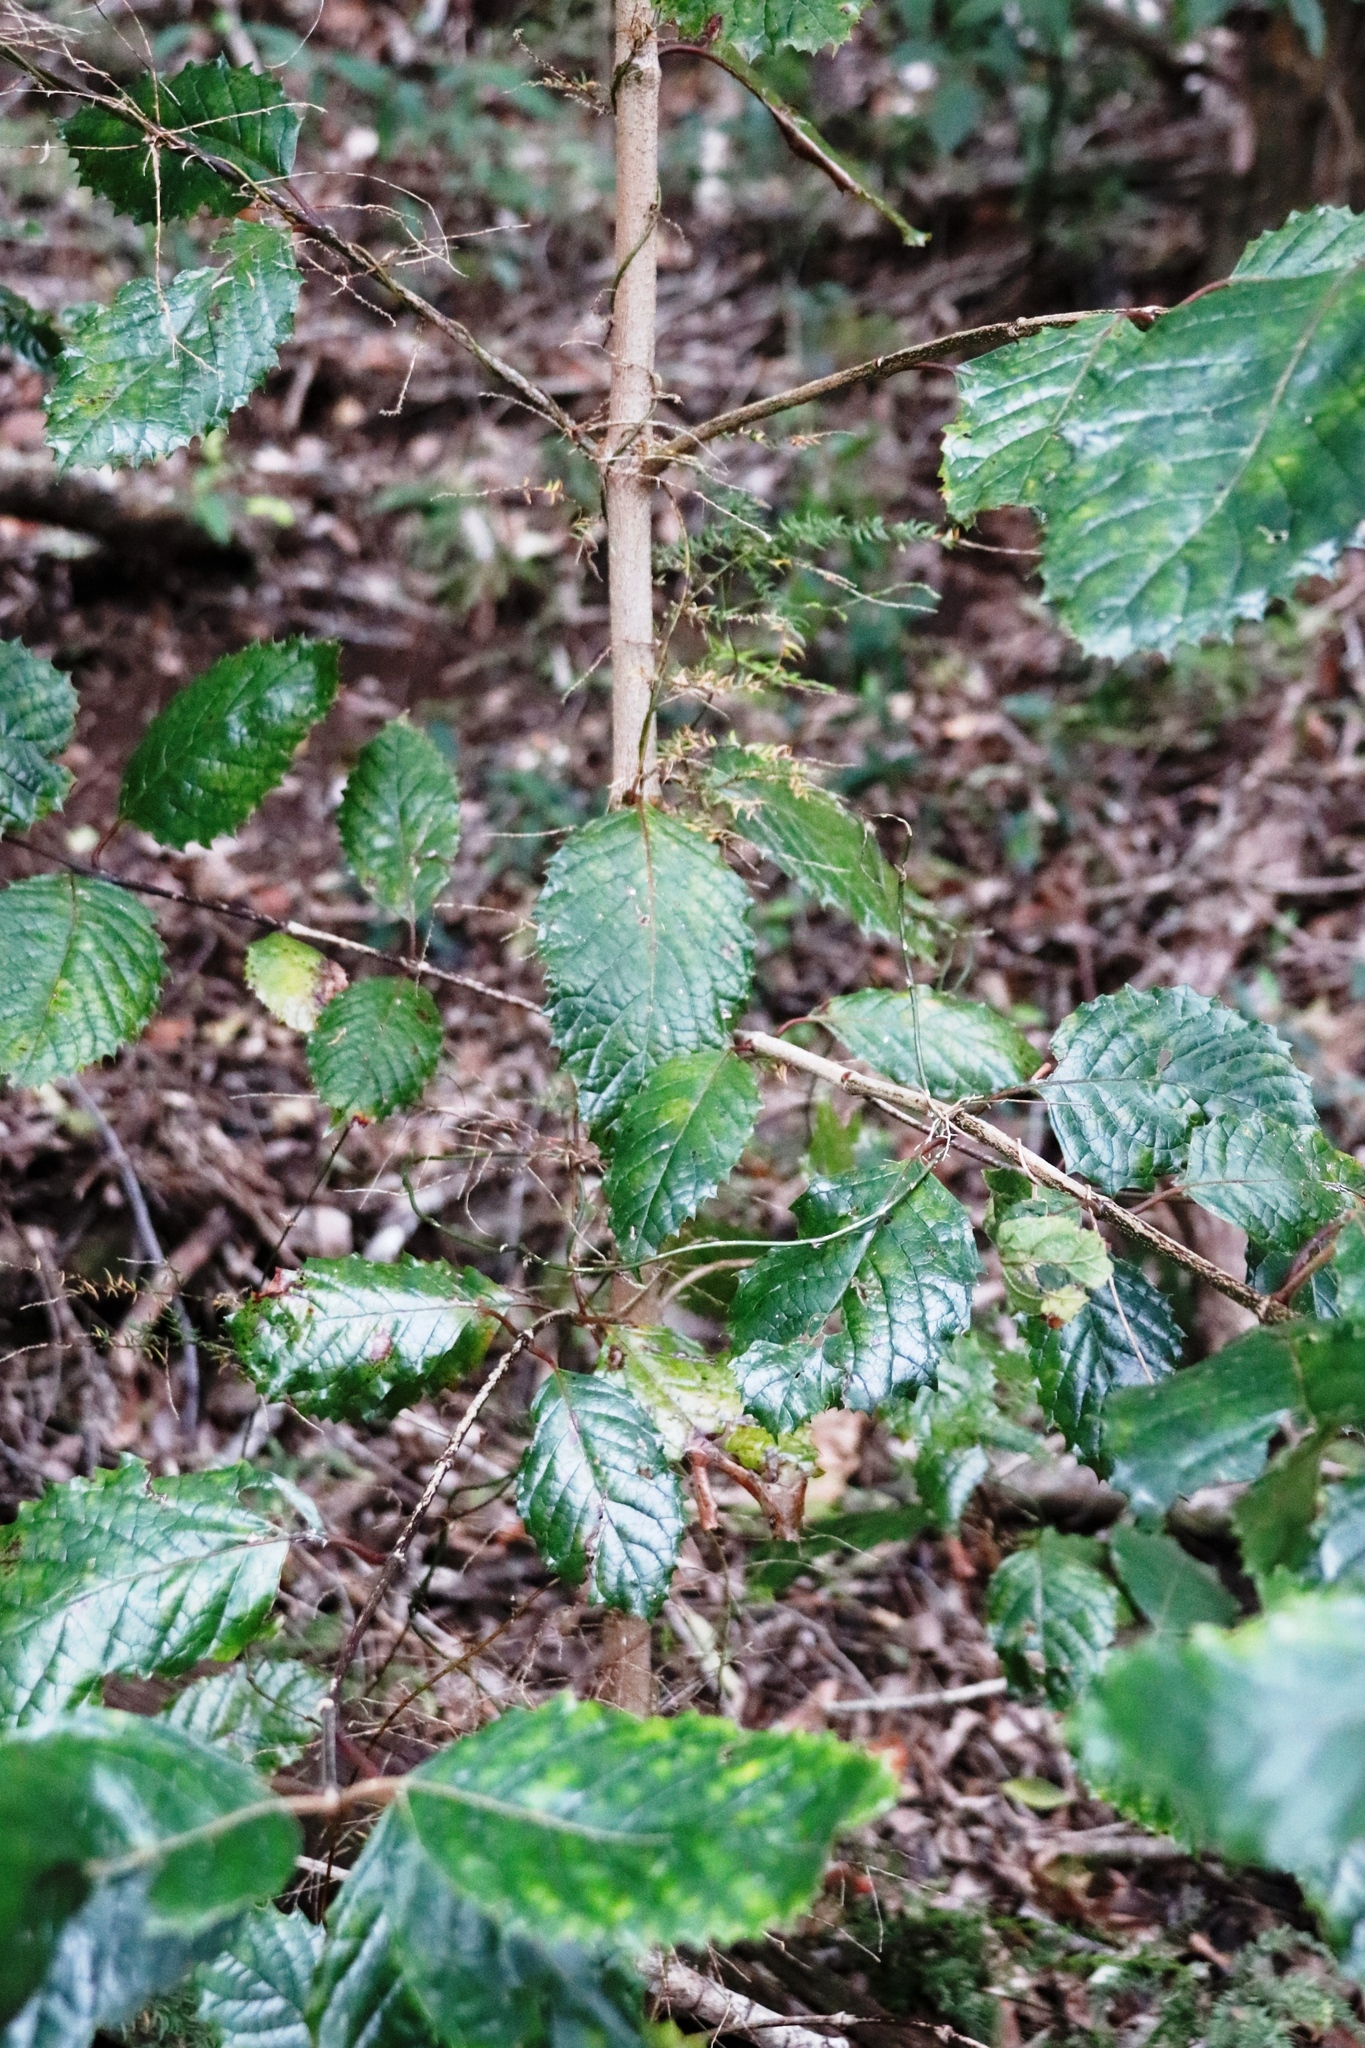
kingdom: Plantae
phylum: Tracheophyta
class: Magnoliopsida
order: Cornales
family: Curtisiaceae
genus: Curtisia
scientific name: Curtisia dentata
